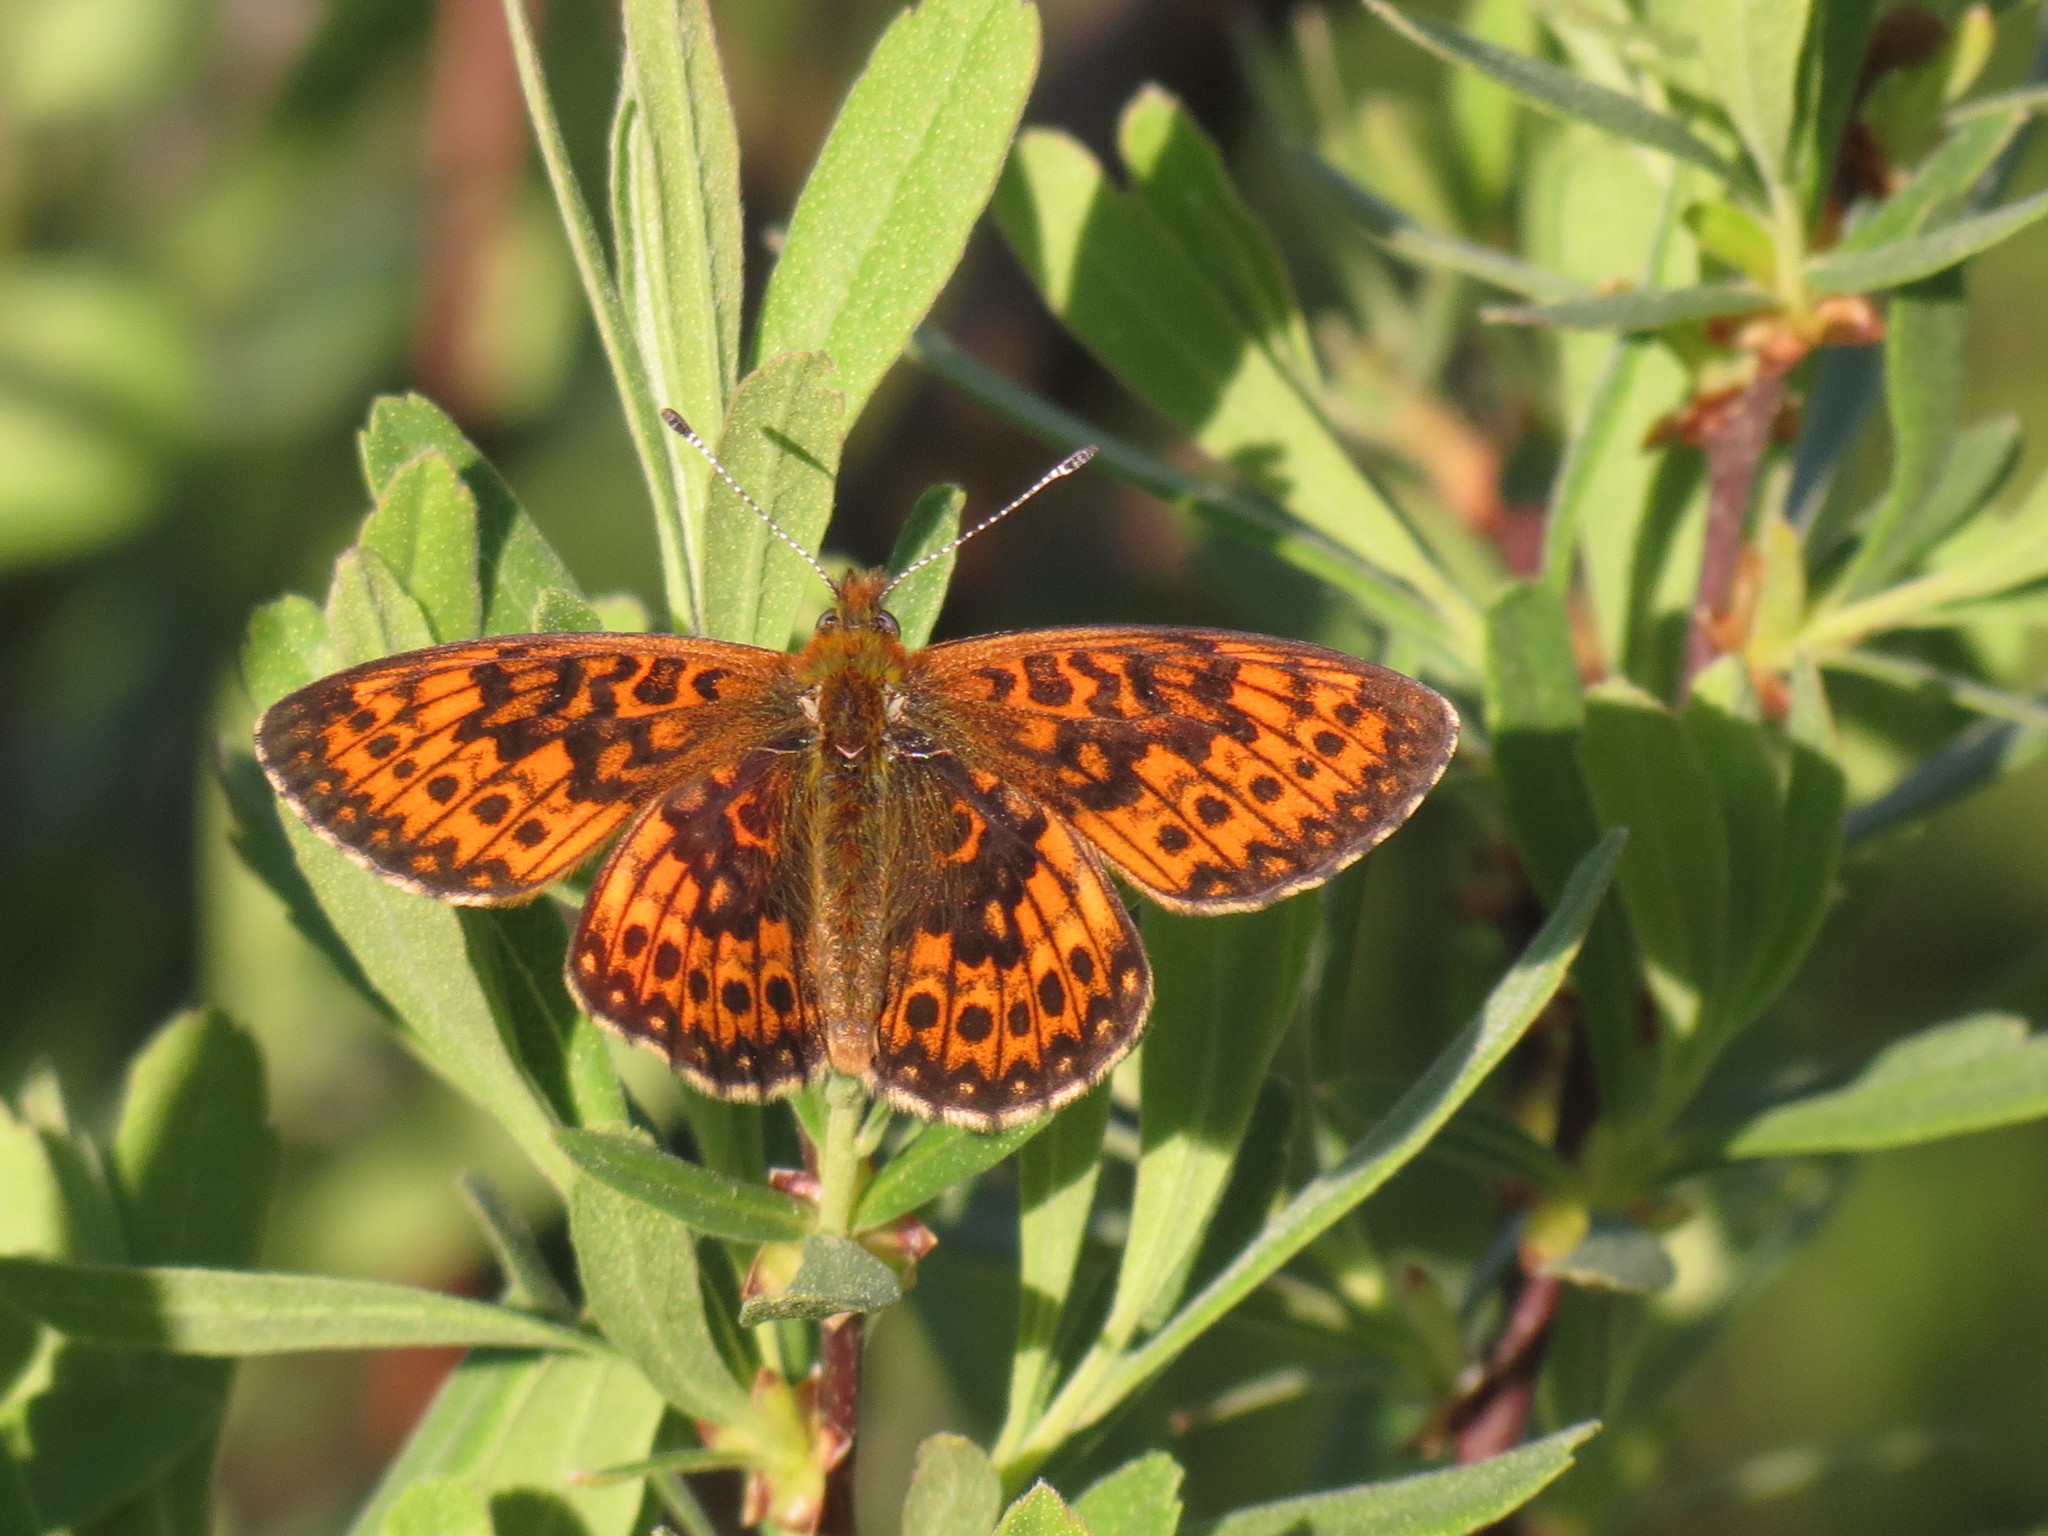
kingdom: Animalia
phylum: Arthropoda
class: Insecta
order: Lepidoptera
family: Nymphalidae
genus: Boloria
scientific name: Boloria eunomia
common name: Bog fritillary
